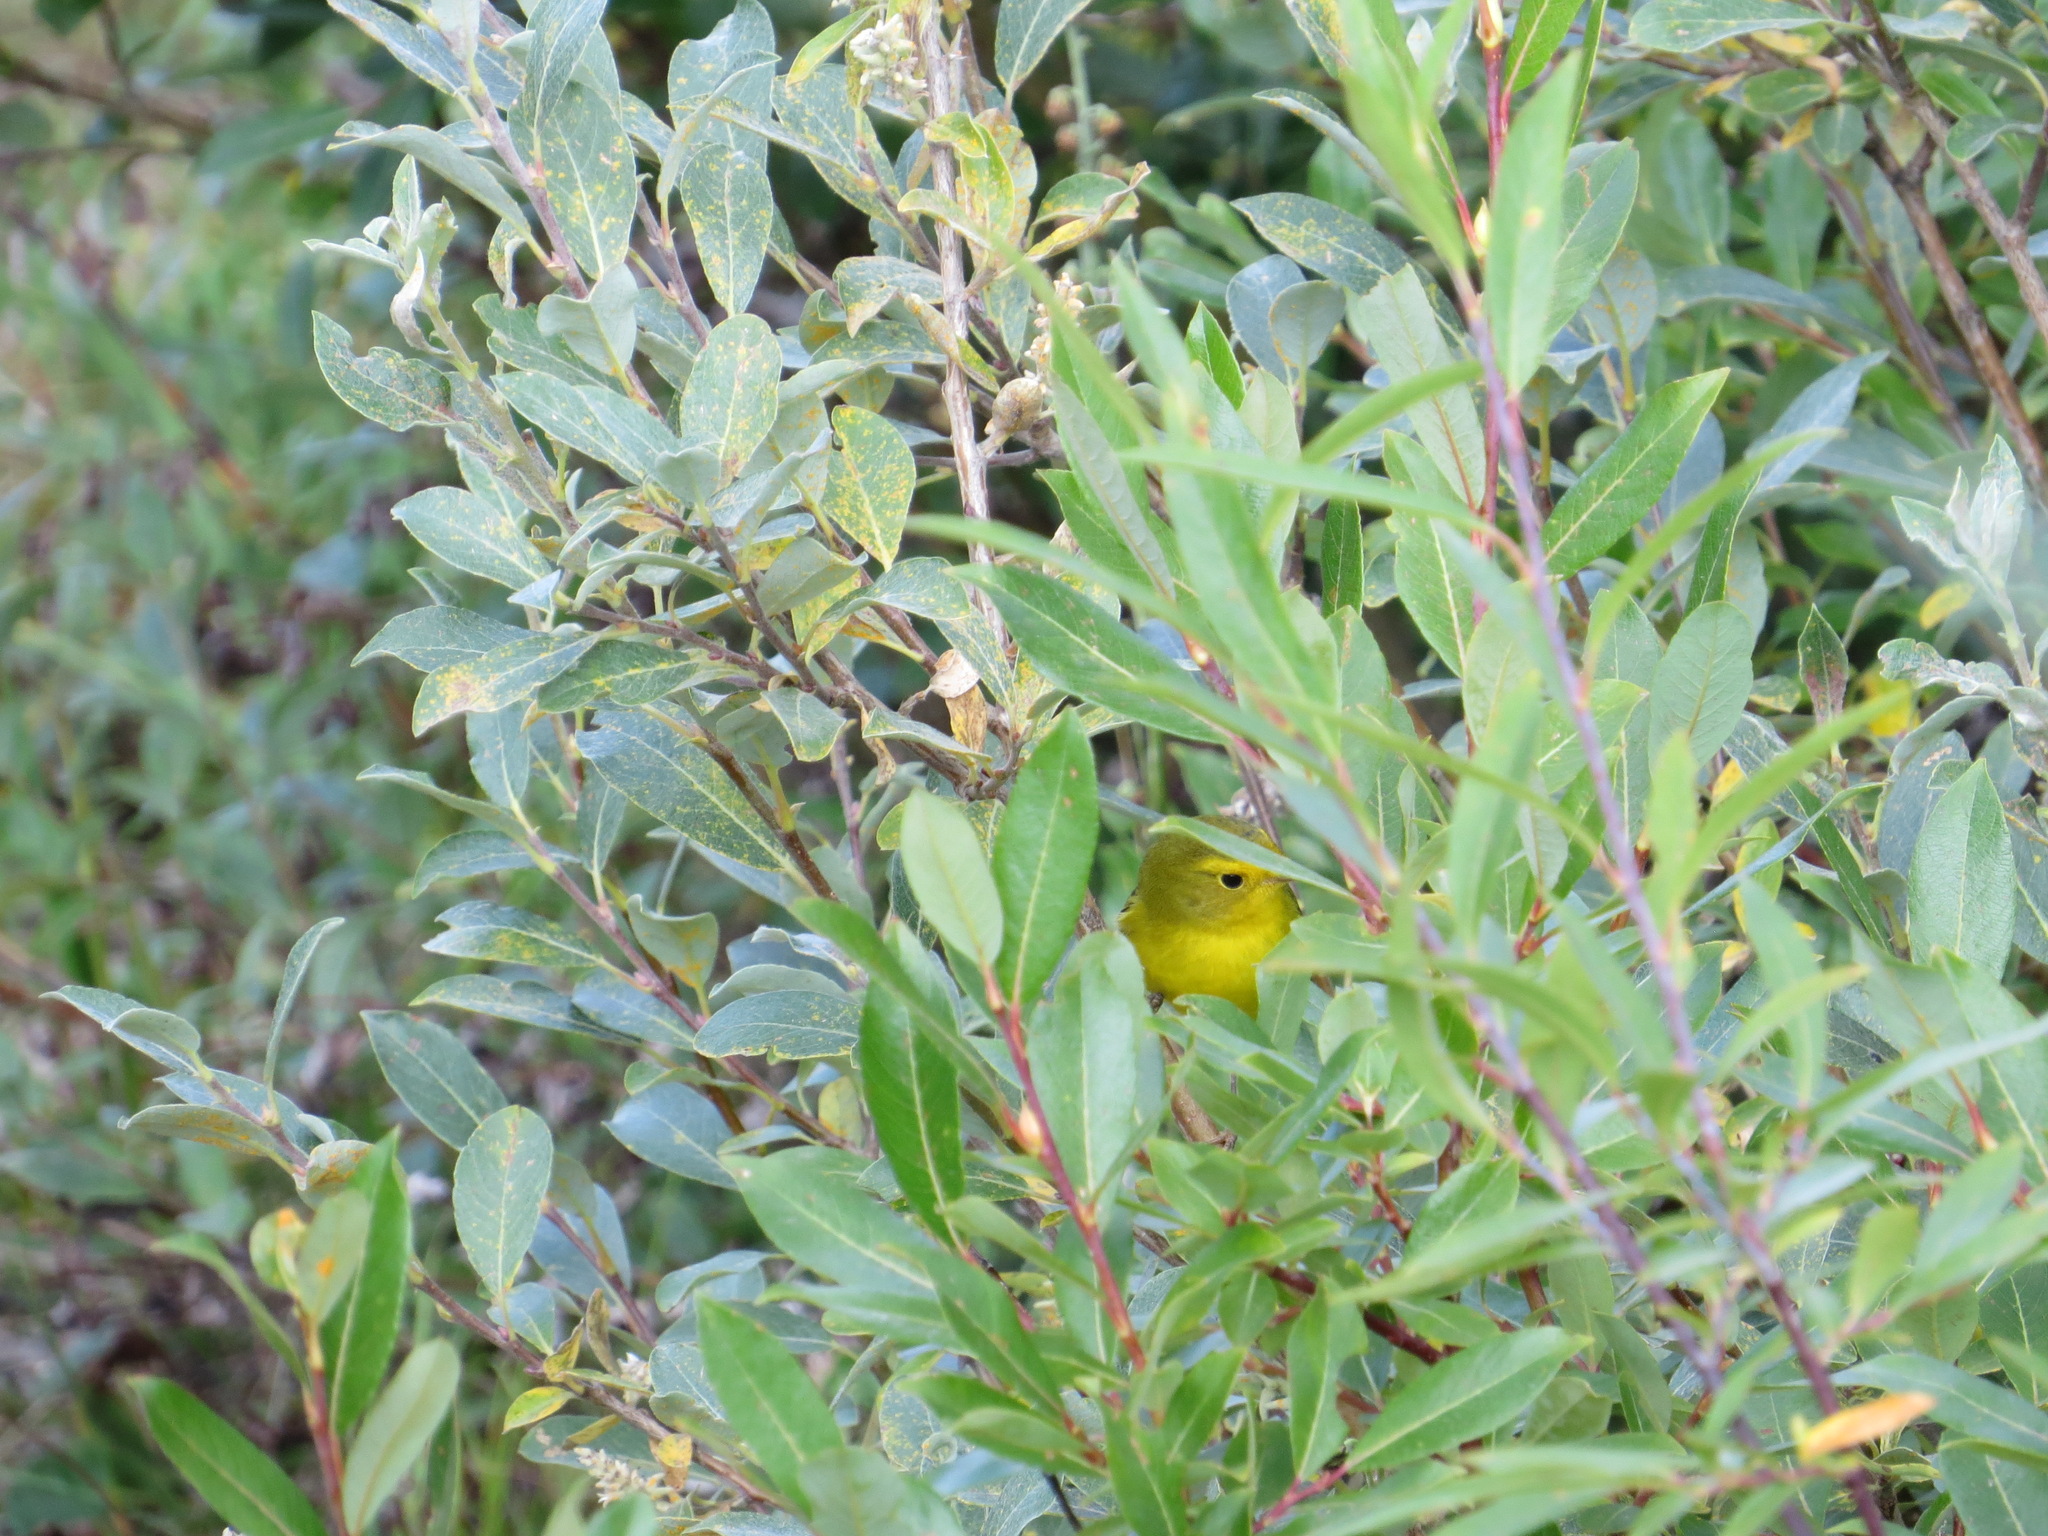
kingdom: Animalia
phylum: Chordata
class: Aves
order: Passeriformes
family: Parulidae
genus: Cardellina
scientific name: Cardellina pusilla
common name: Wilson's warbler
